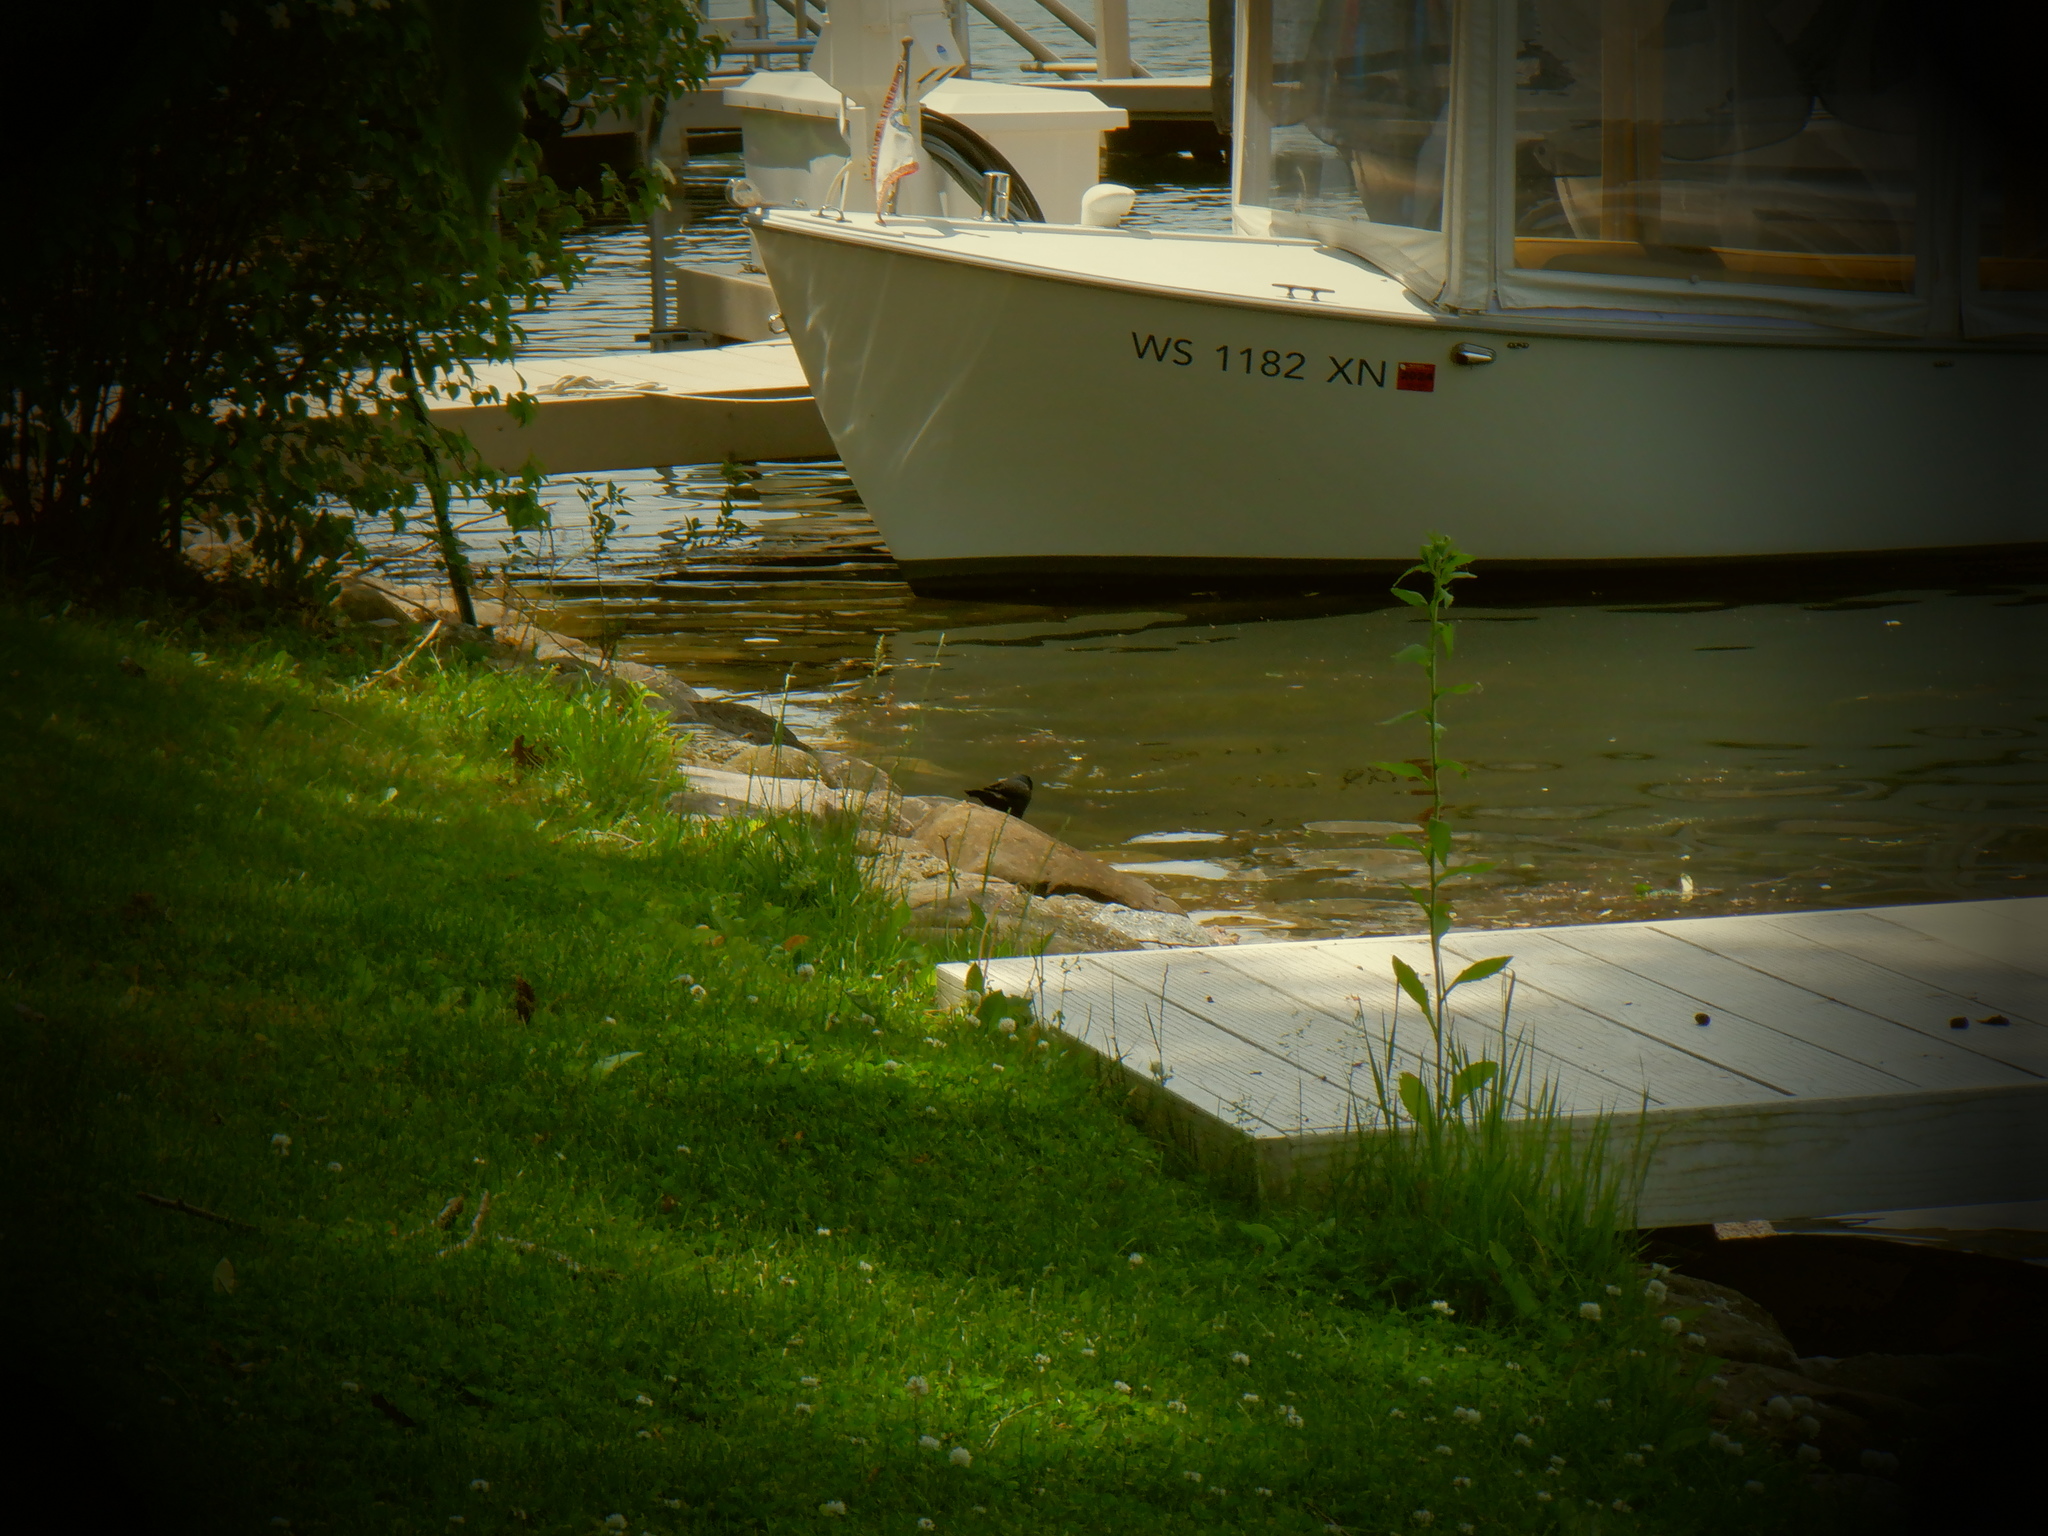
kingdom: Animalia
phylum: Chordata
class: Aves
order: Passeriformes
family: Icteridae
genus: Quiscalus
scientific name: Quiscalus quiscula
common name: Common grackle
